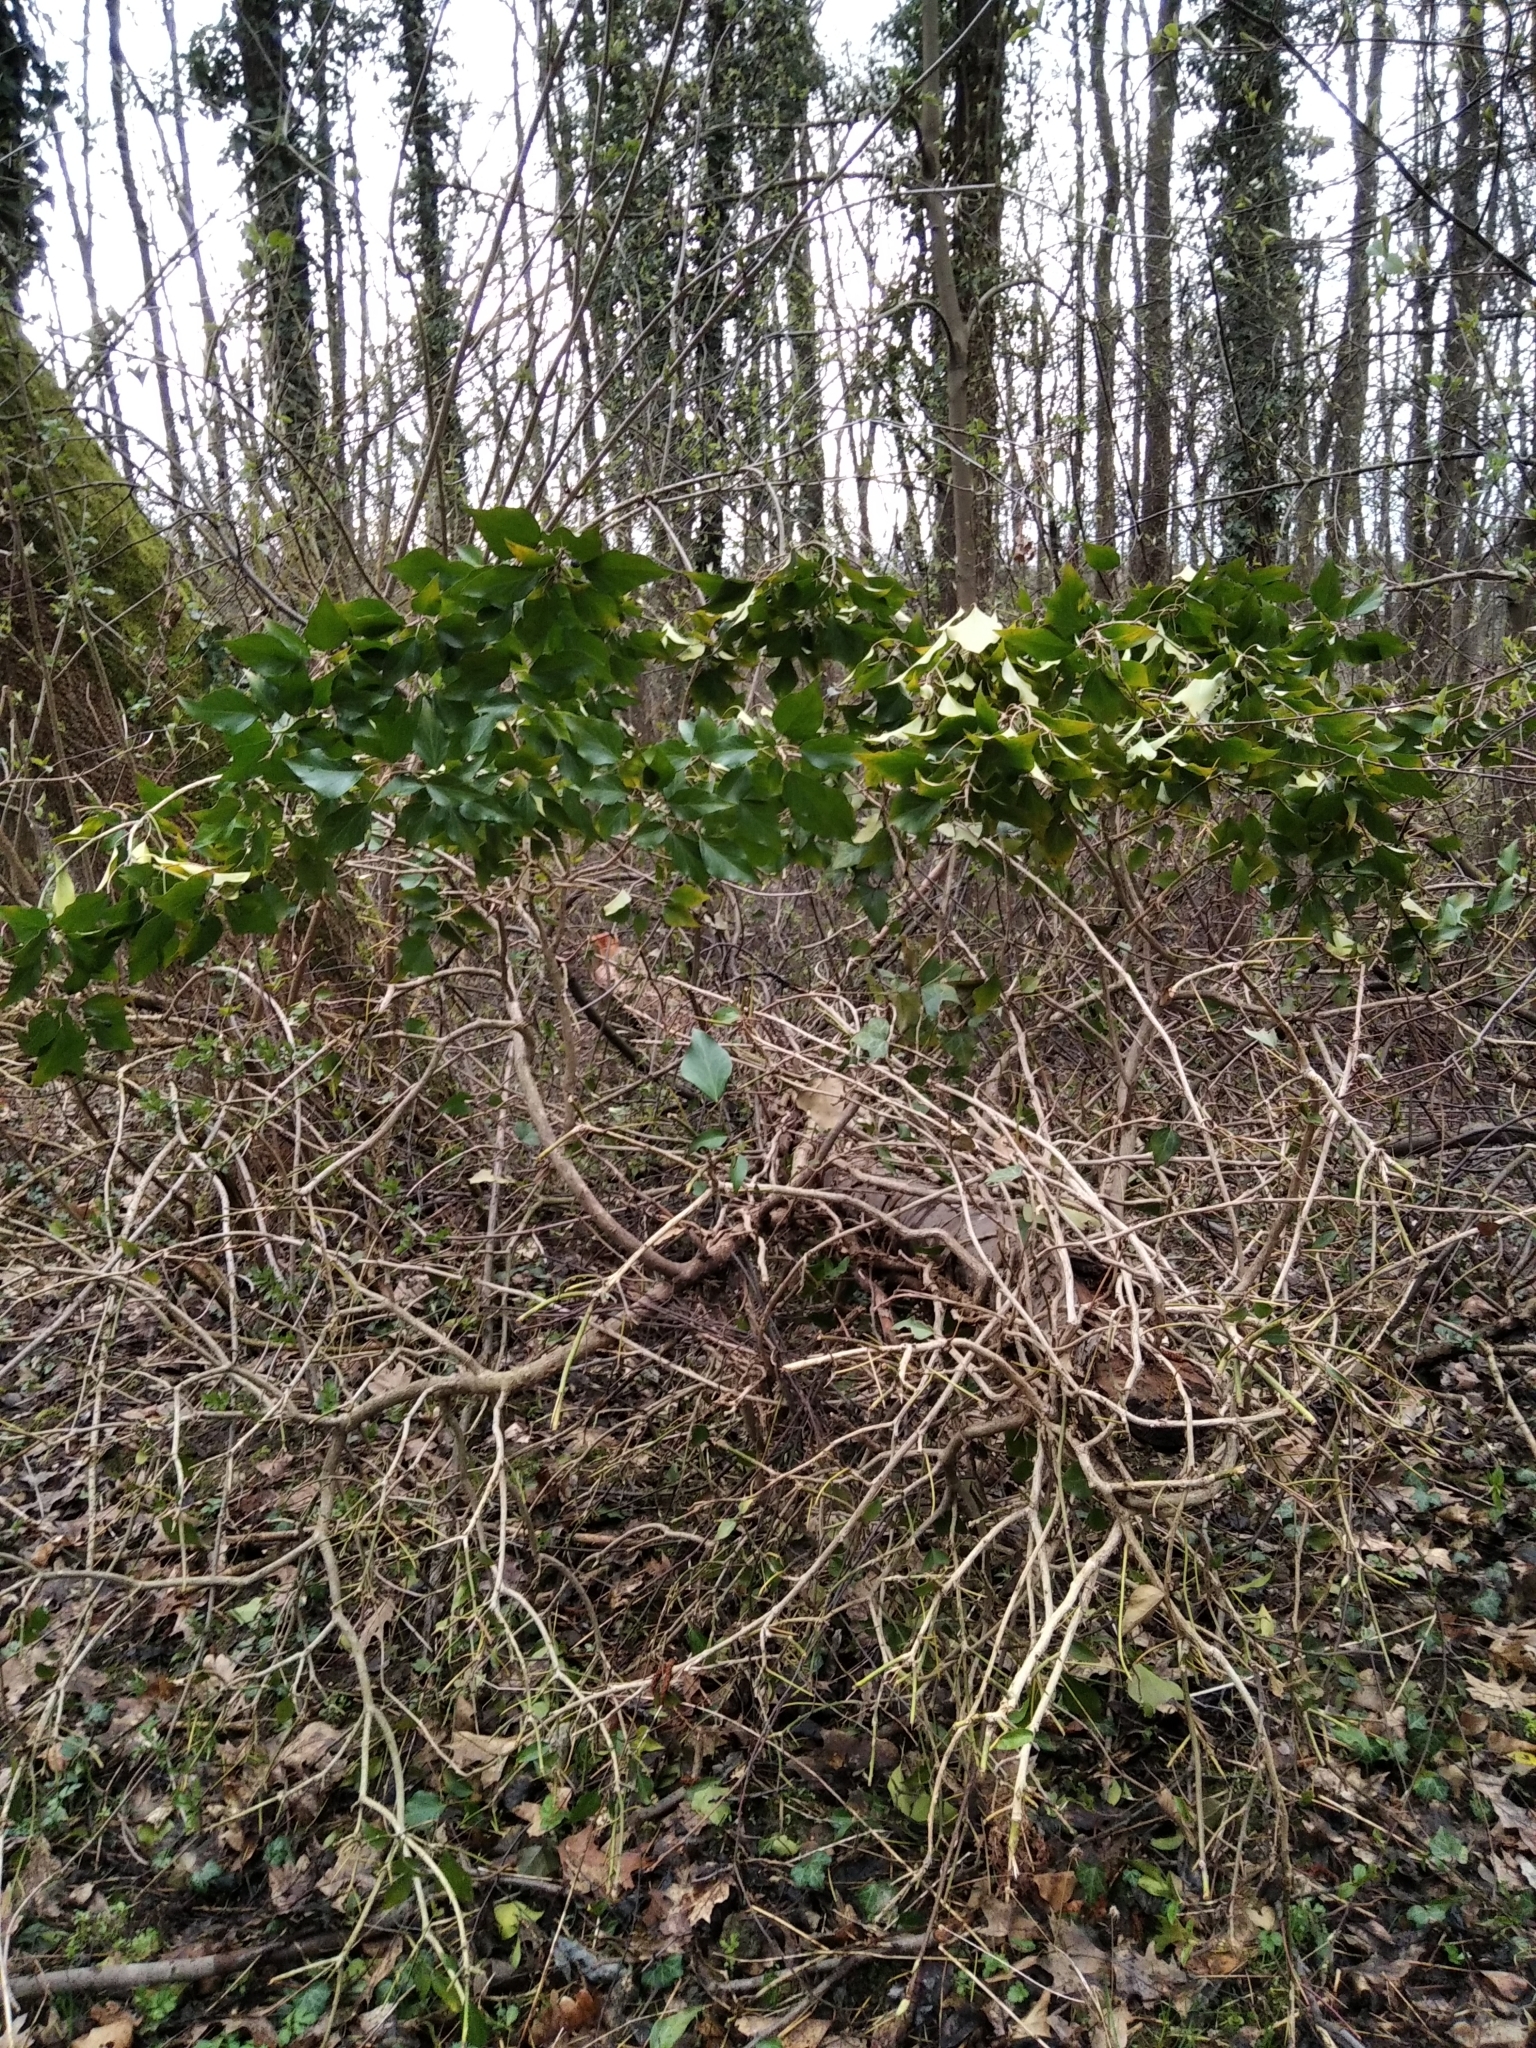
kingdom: Plantae
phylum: Tracheophyta
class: Magnoliopsida
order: Apiales
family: Araliaceae
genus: Hedera
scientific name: Hedera helix
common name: Ivy
